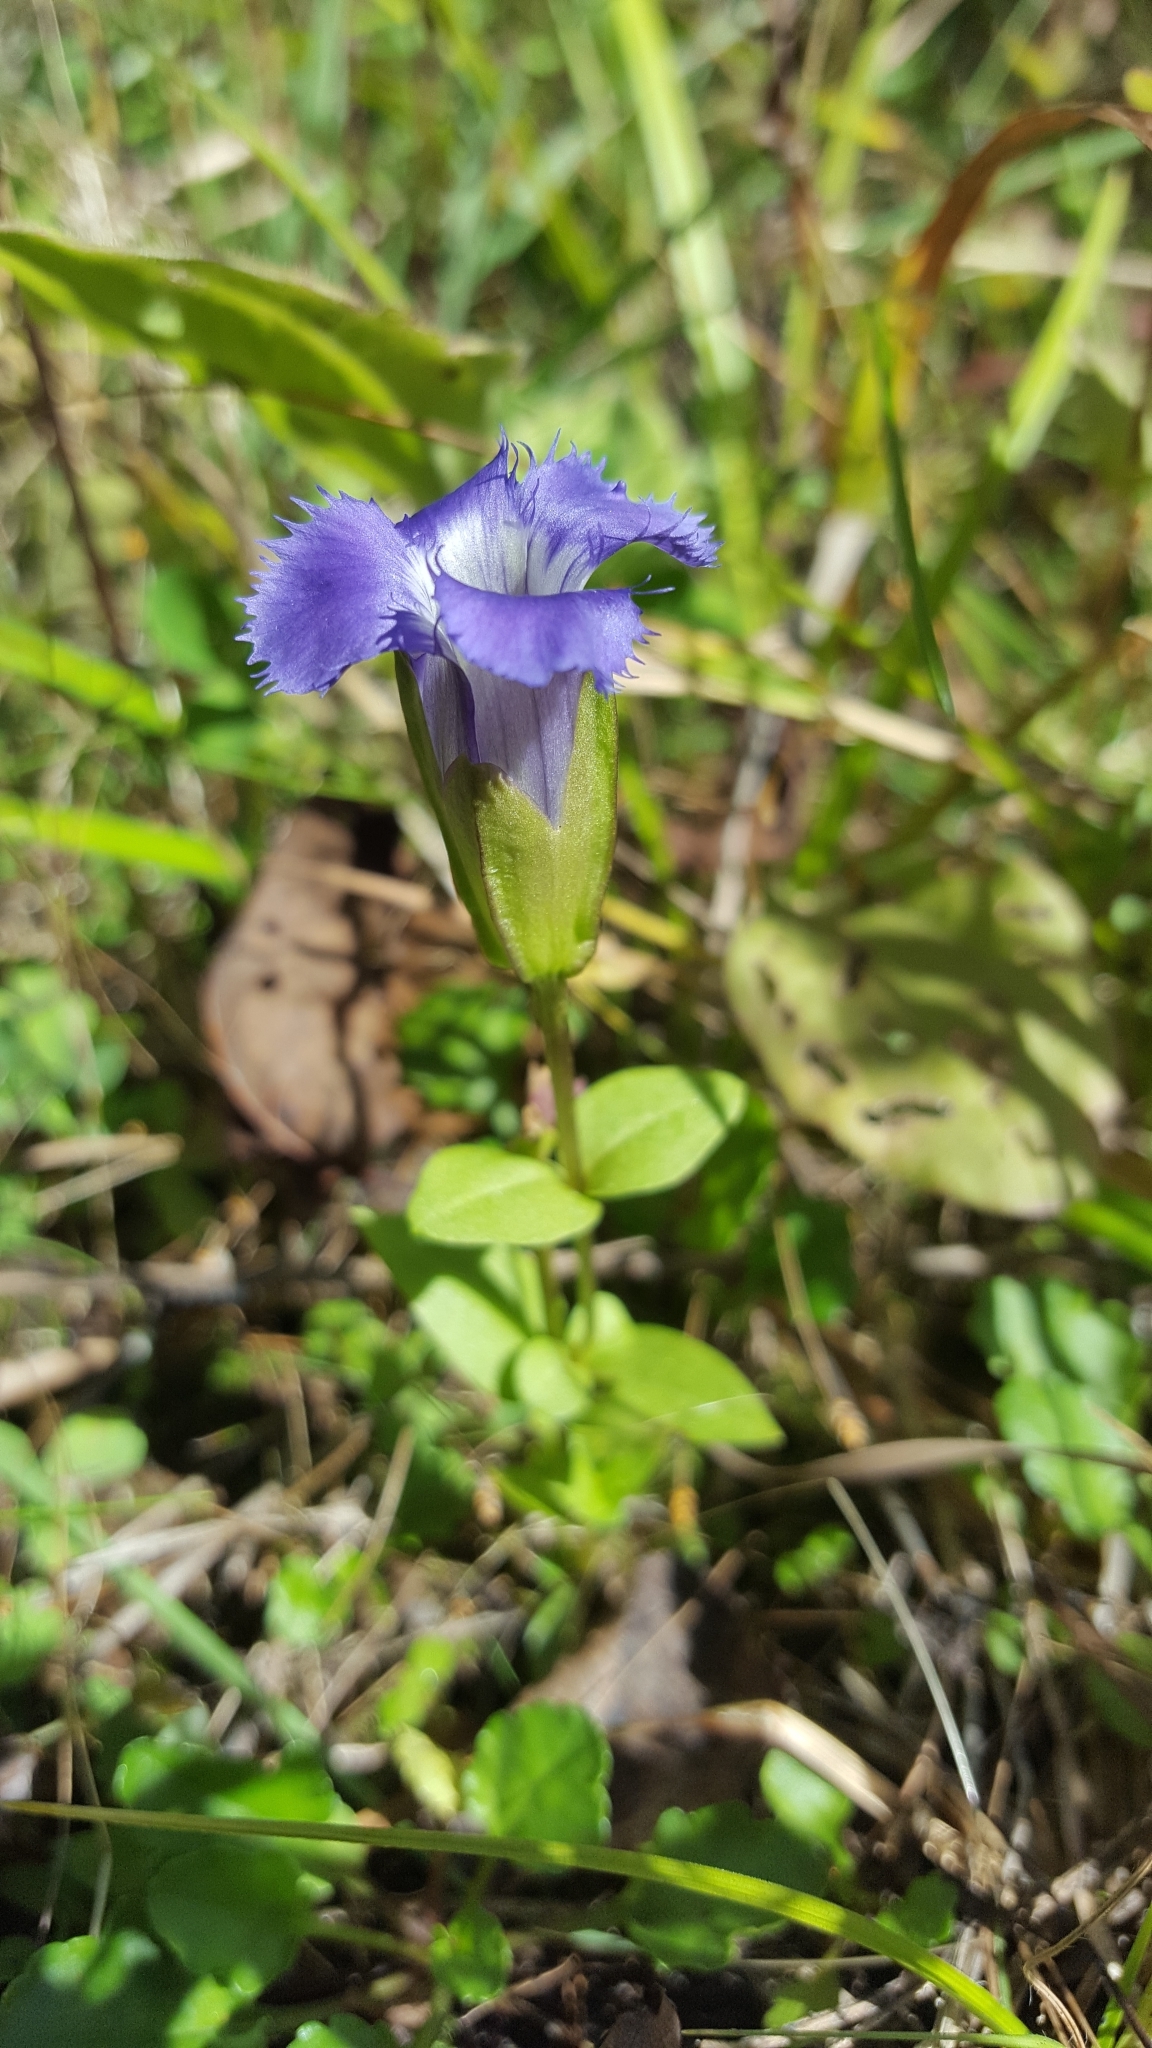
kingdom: Plantae
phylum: Tracheophyta
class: Magnoliopsida
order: Gentianales
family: Gentianaceae
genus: Gentianopsis
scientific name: Gentianopsis crinita
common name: Fringed-gentian
